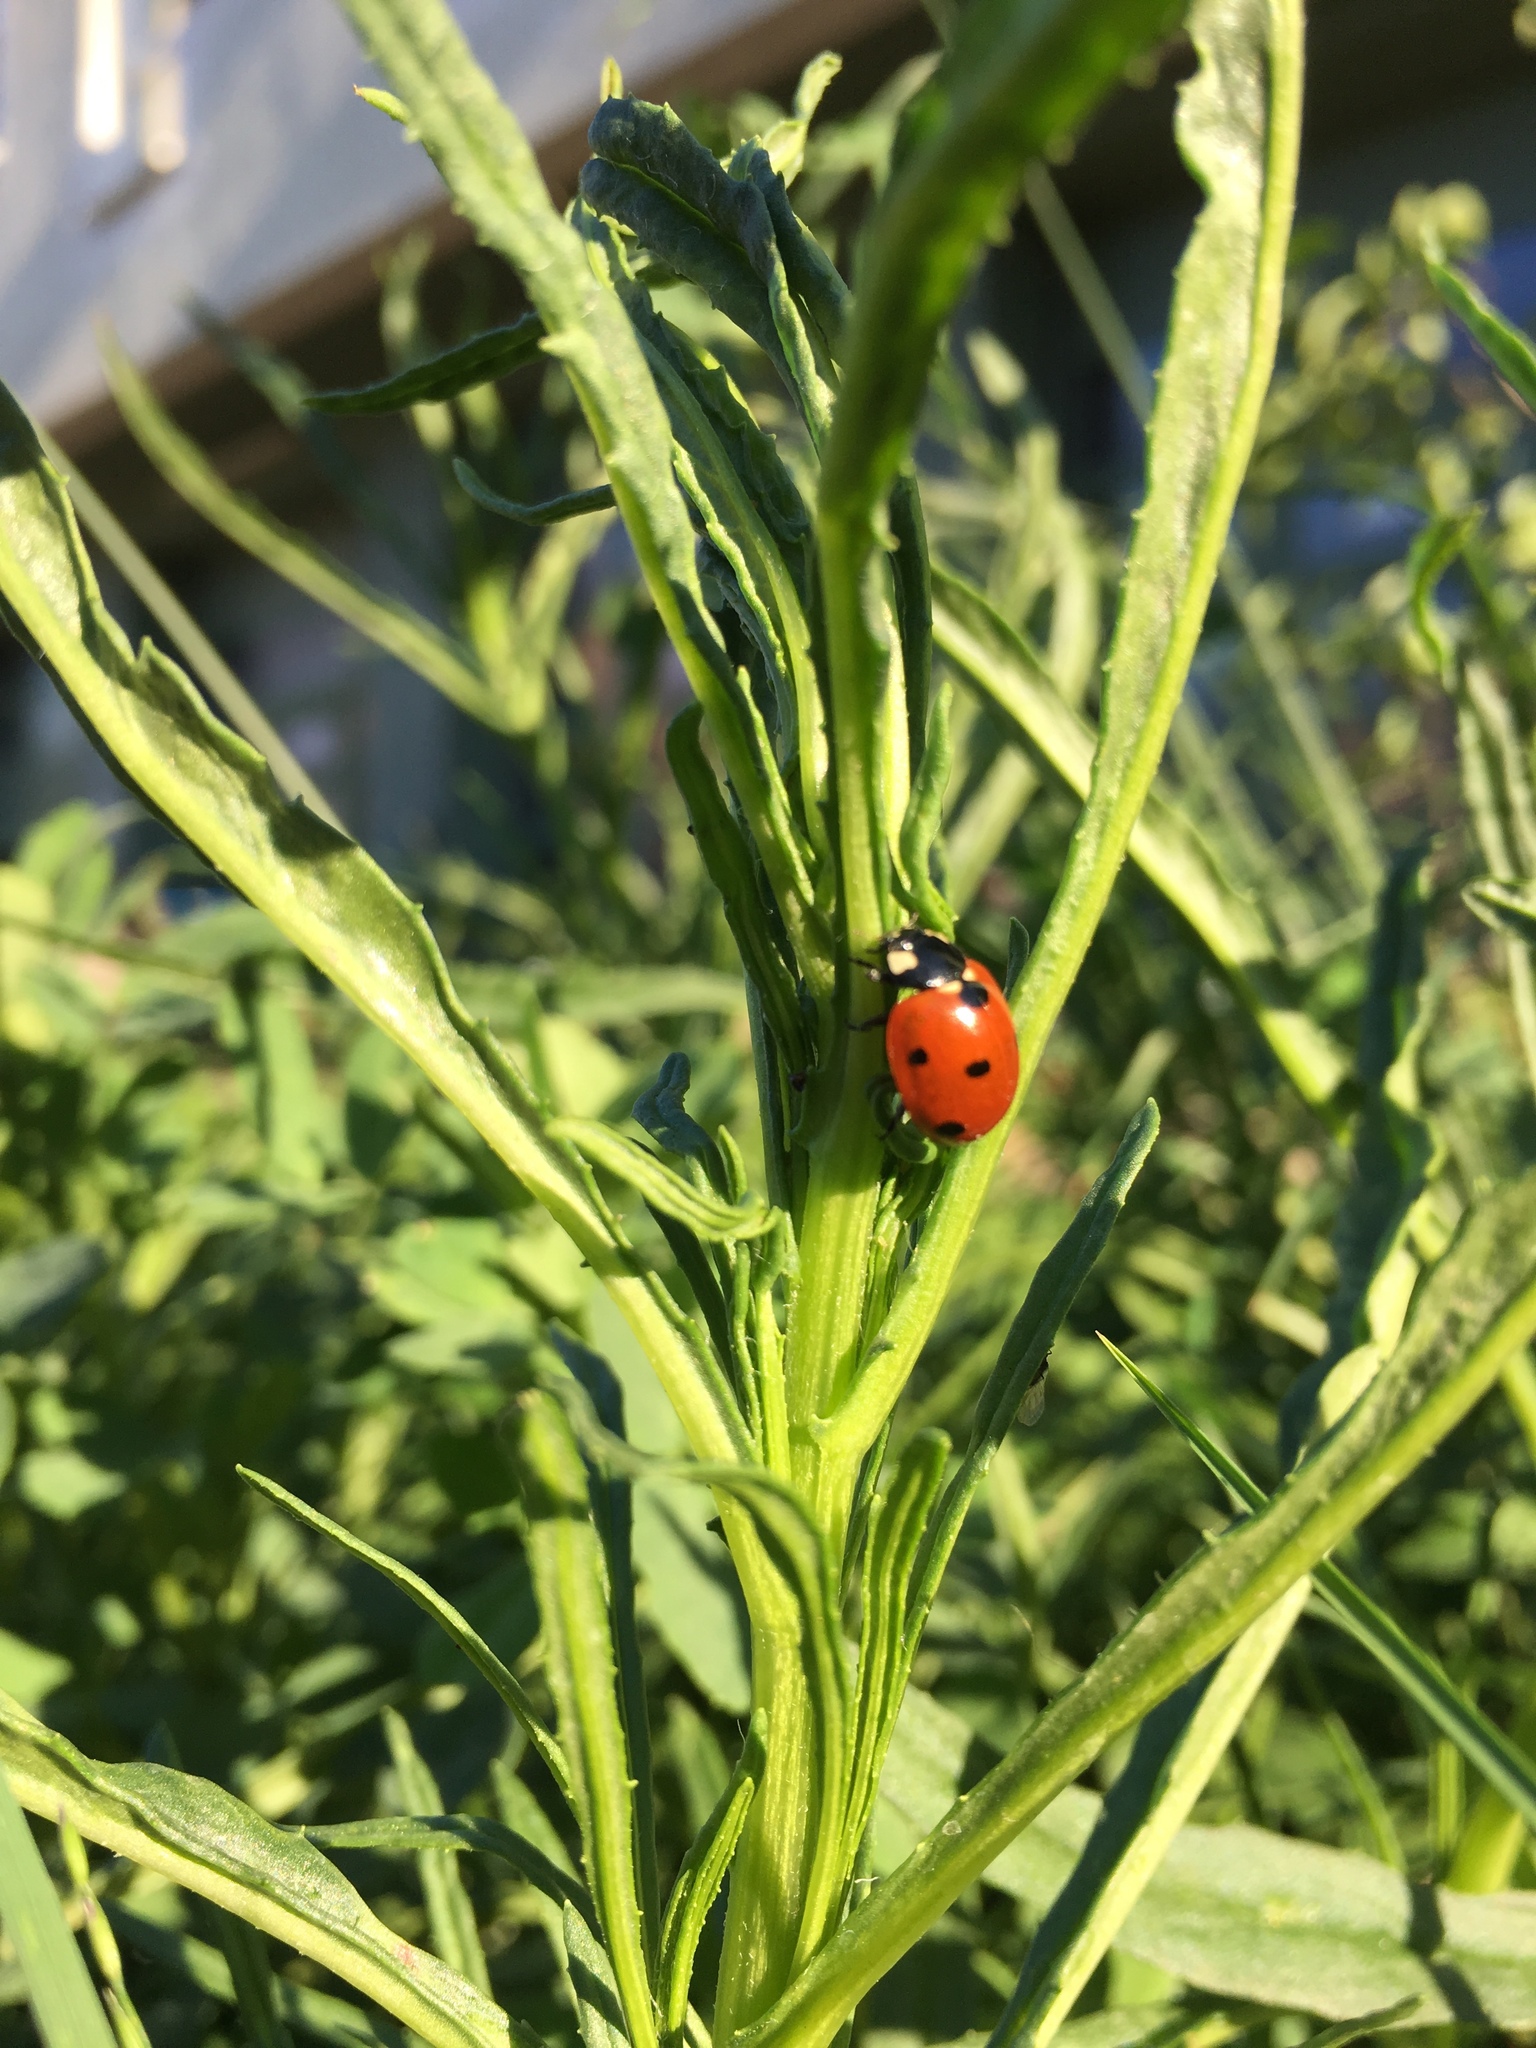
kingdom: Animalia
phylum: Arthropoda
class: Insecta
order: Coleoptera
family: Coccinellidae
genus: Coccinella
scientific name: Coccinella septempunctata
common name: Sevenspotted lady beetle
